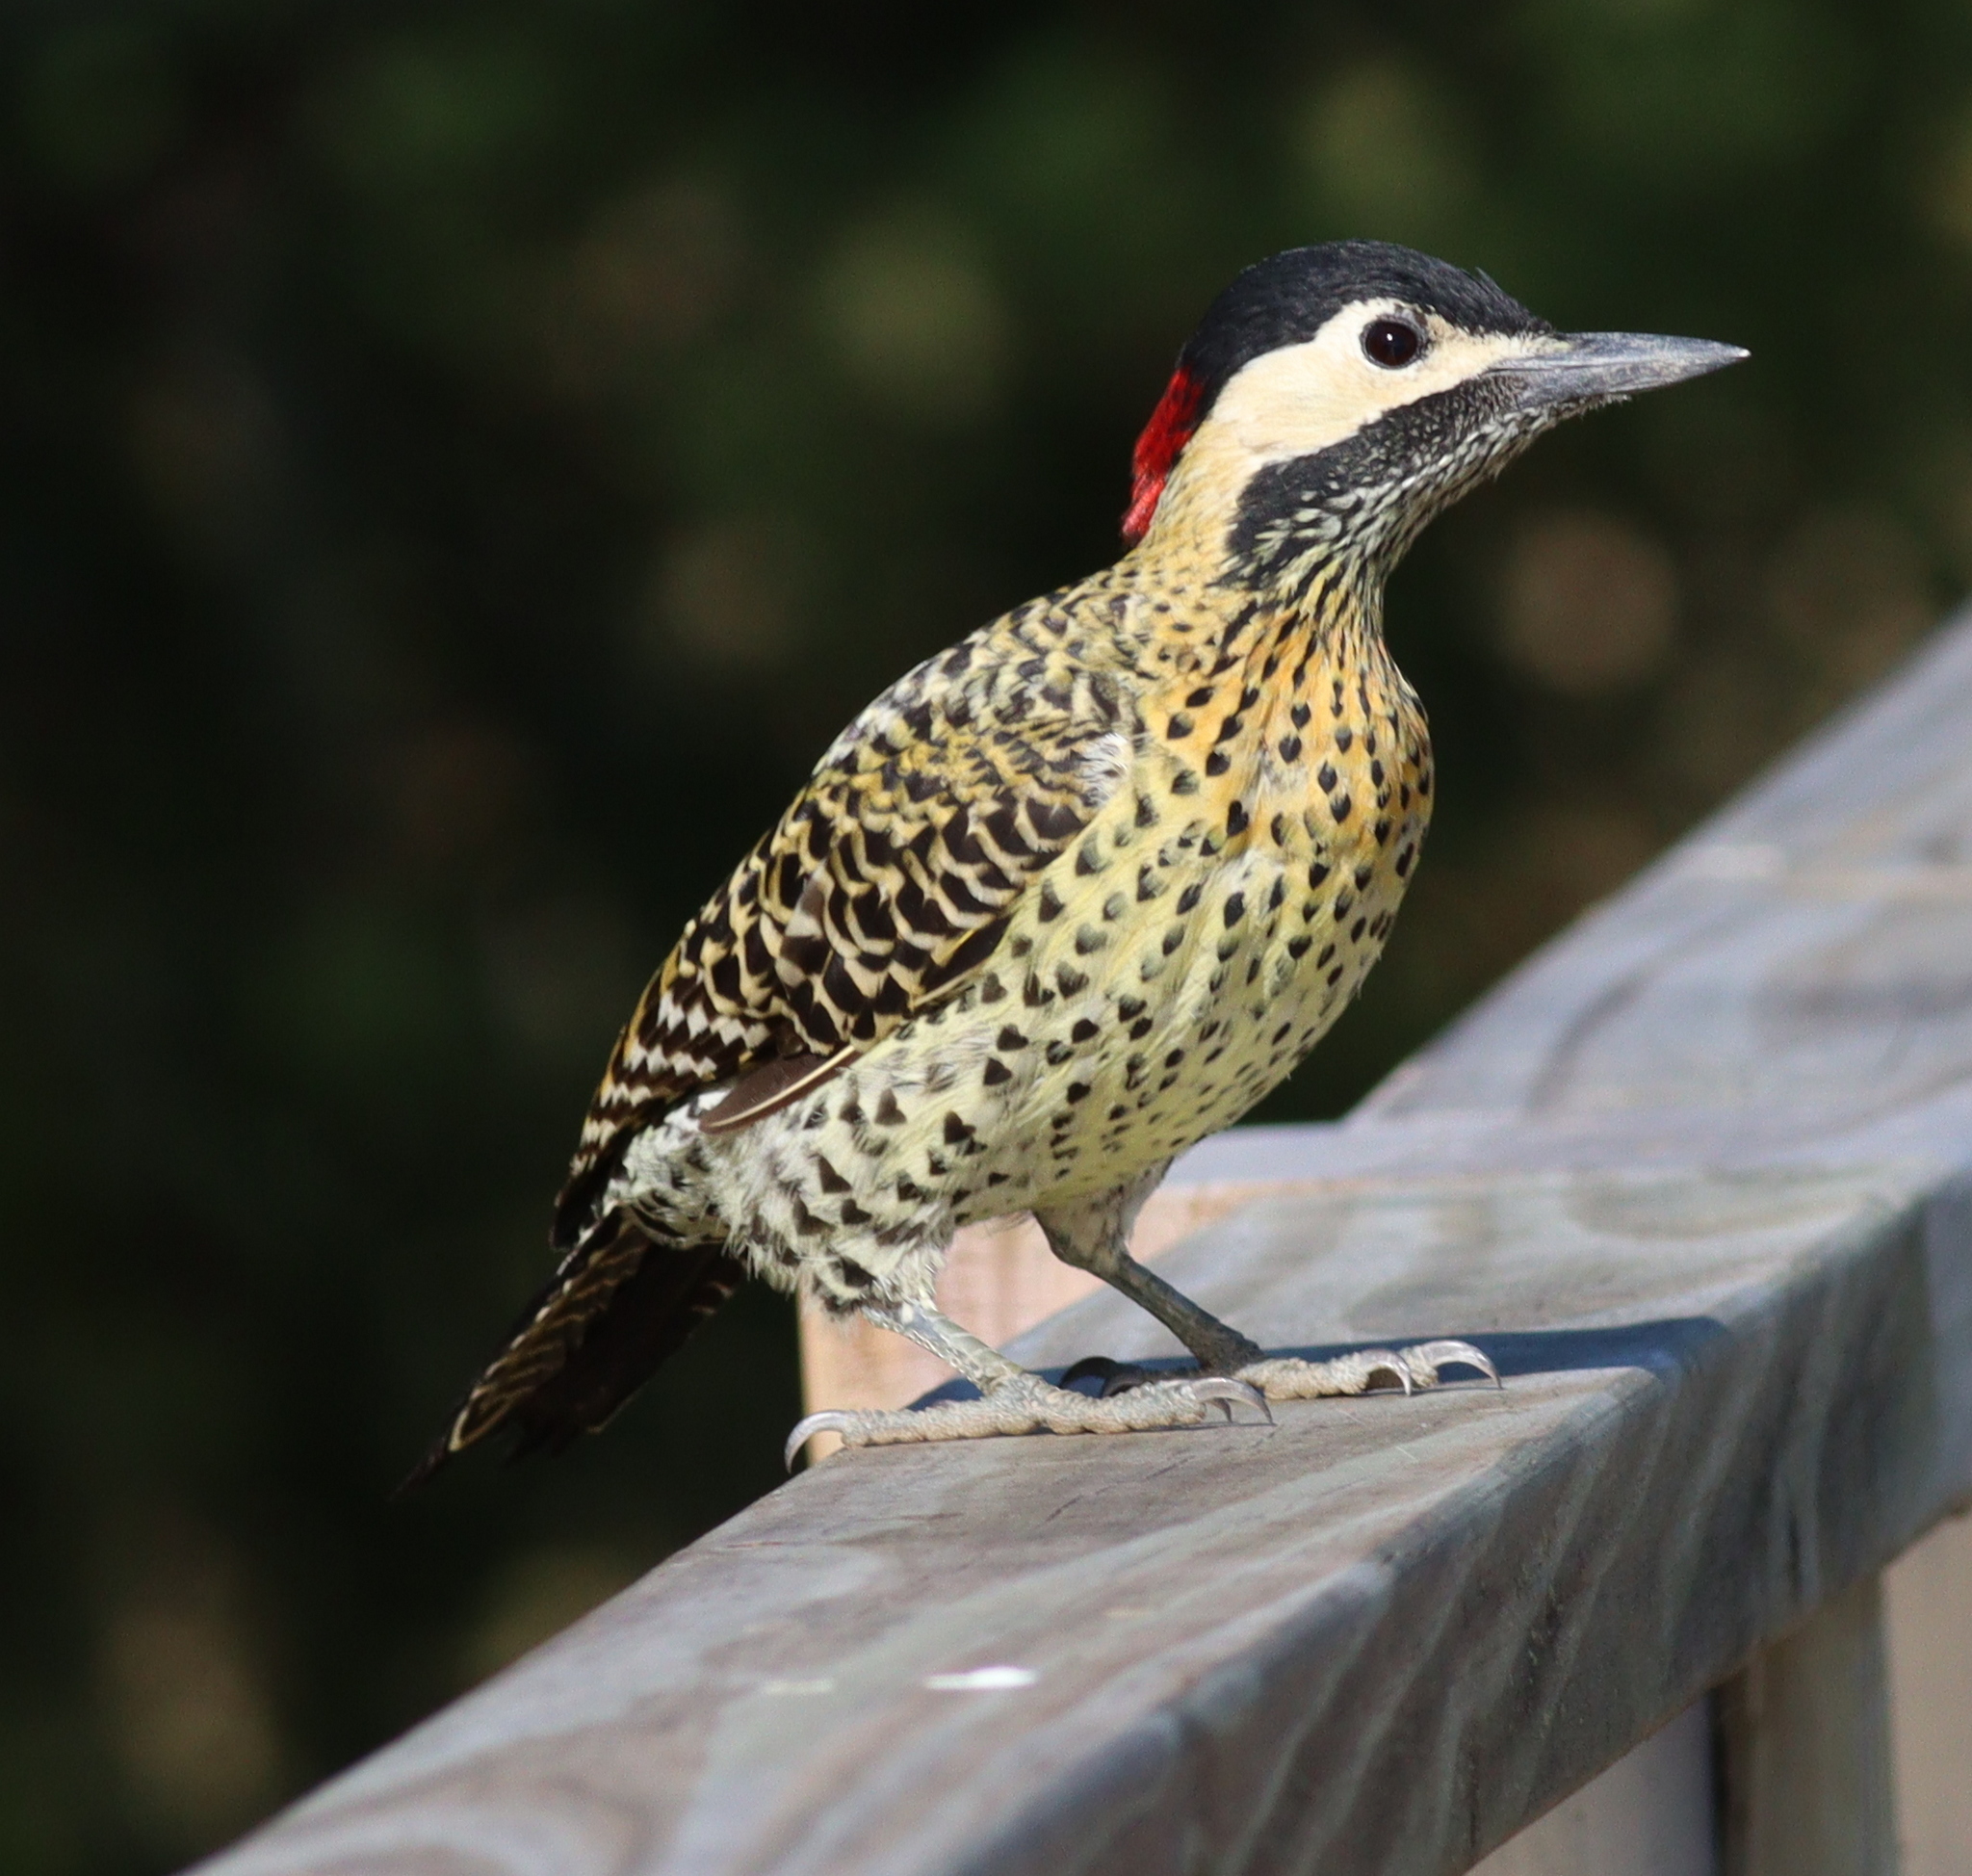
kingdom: Animalia
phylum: Chordata
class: Aves
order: Piciformes
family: Picidae
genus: Colaptes
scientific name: Colaptes melanochloros
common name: Green-barred woodpecker
